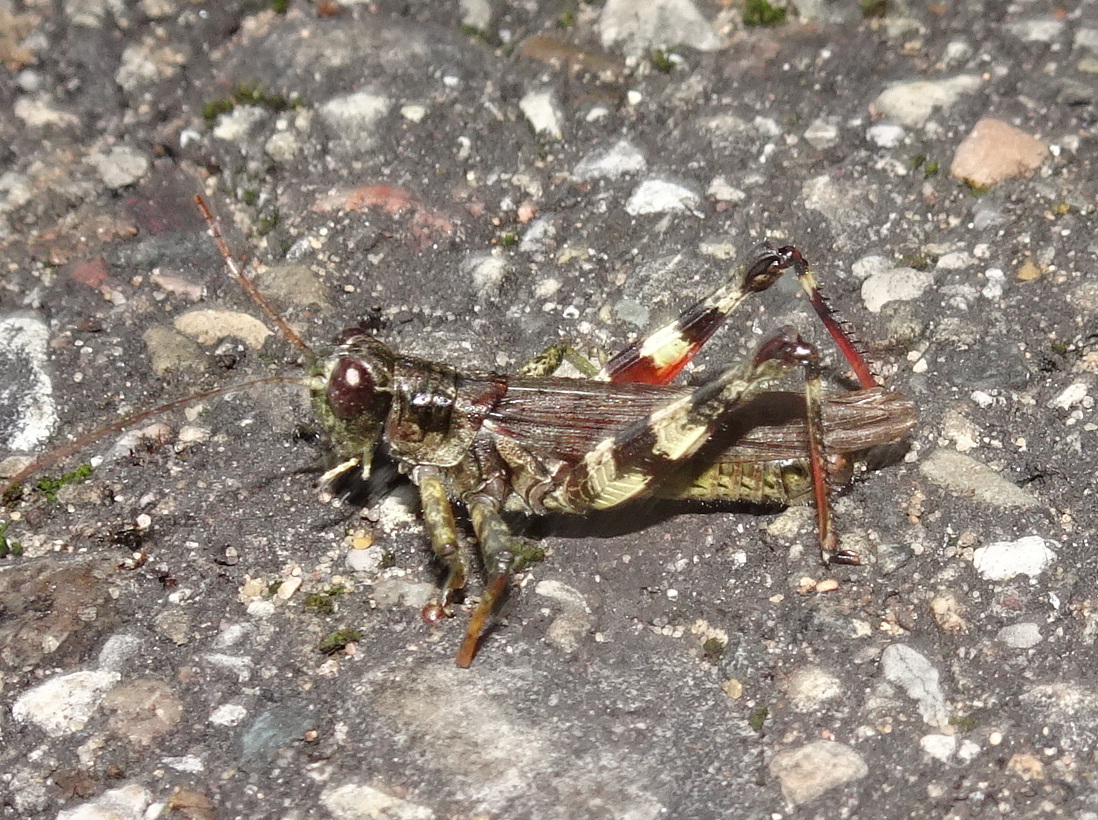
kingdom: Animalia
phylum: Arthropoda
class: Insecta
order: Orthoptera
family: Acrididae
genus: Melanoplus
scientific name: Melanoplus punctulatus
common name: Pine-tree spur-throat grasshopper
